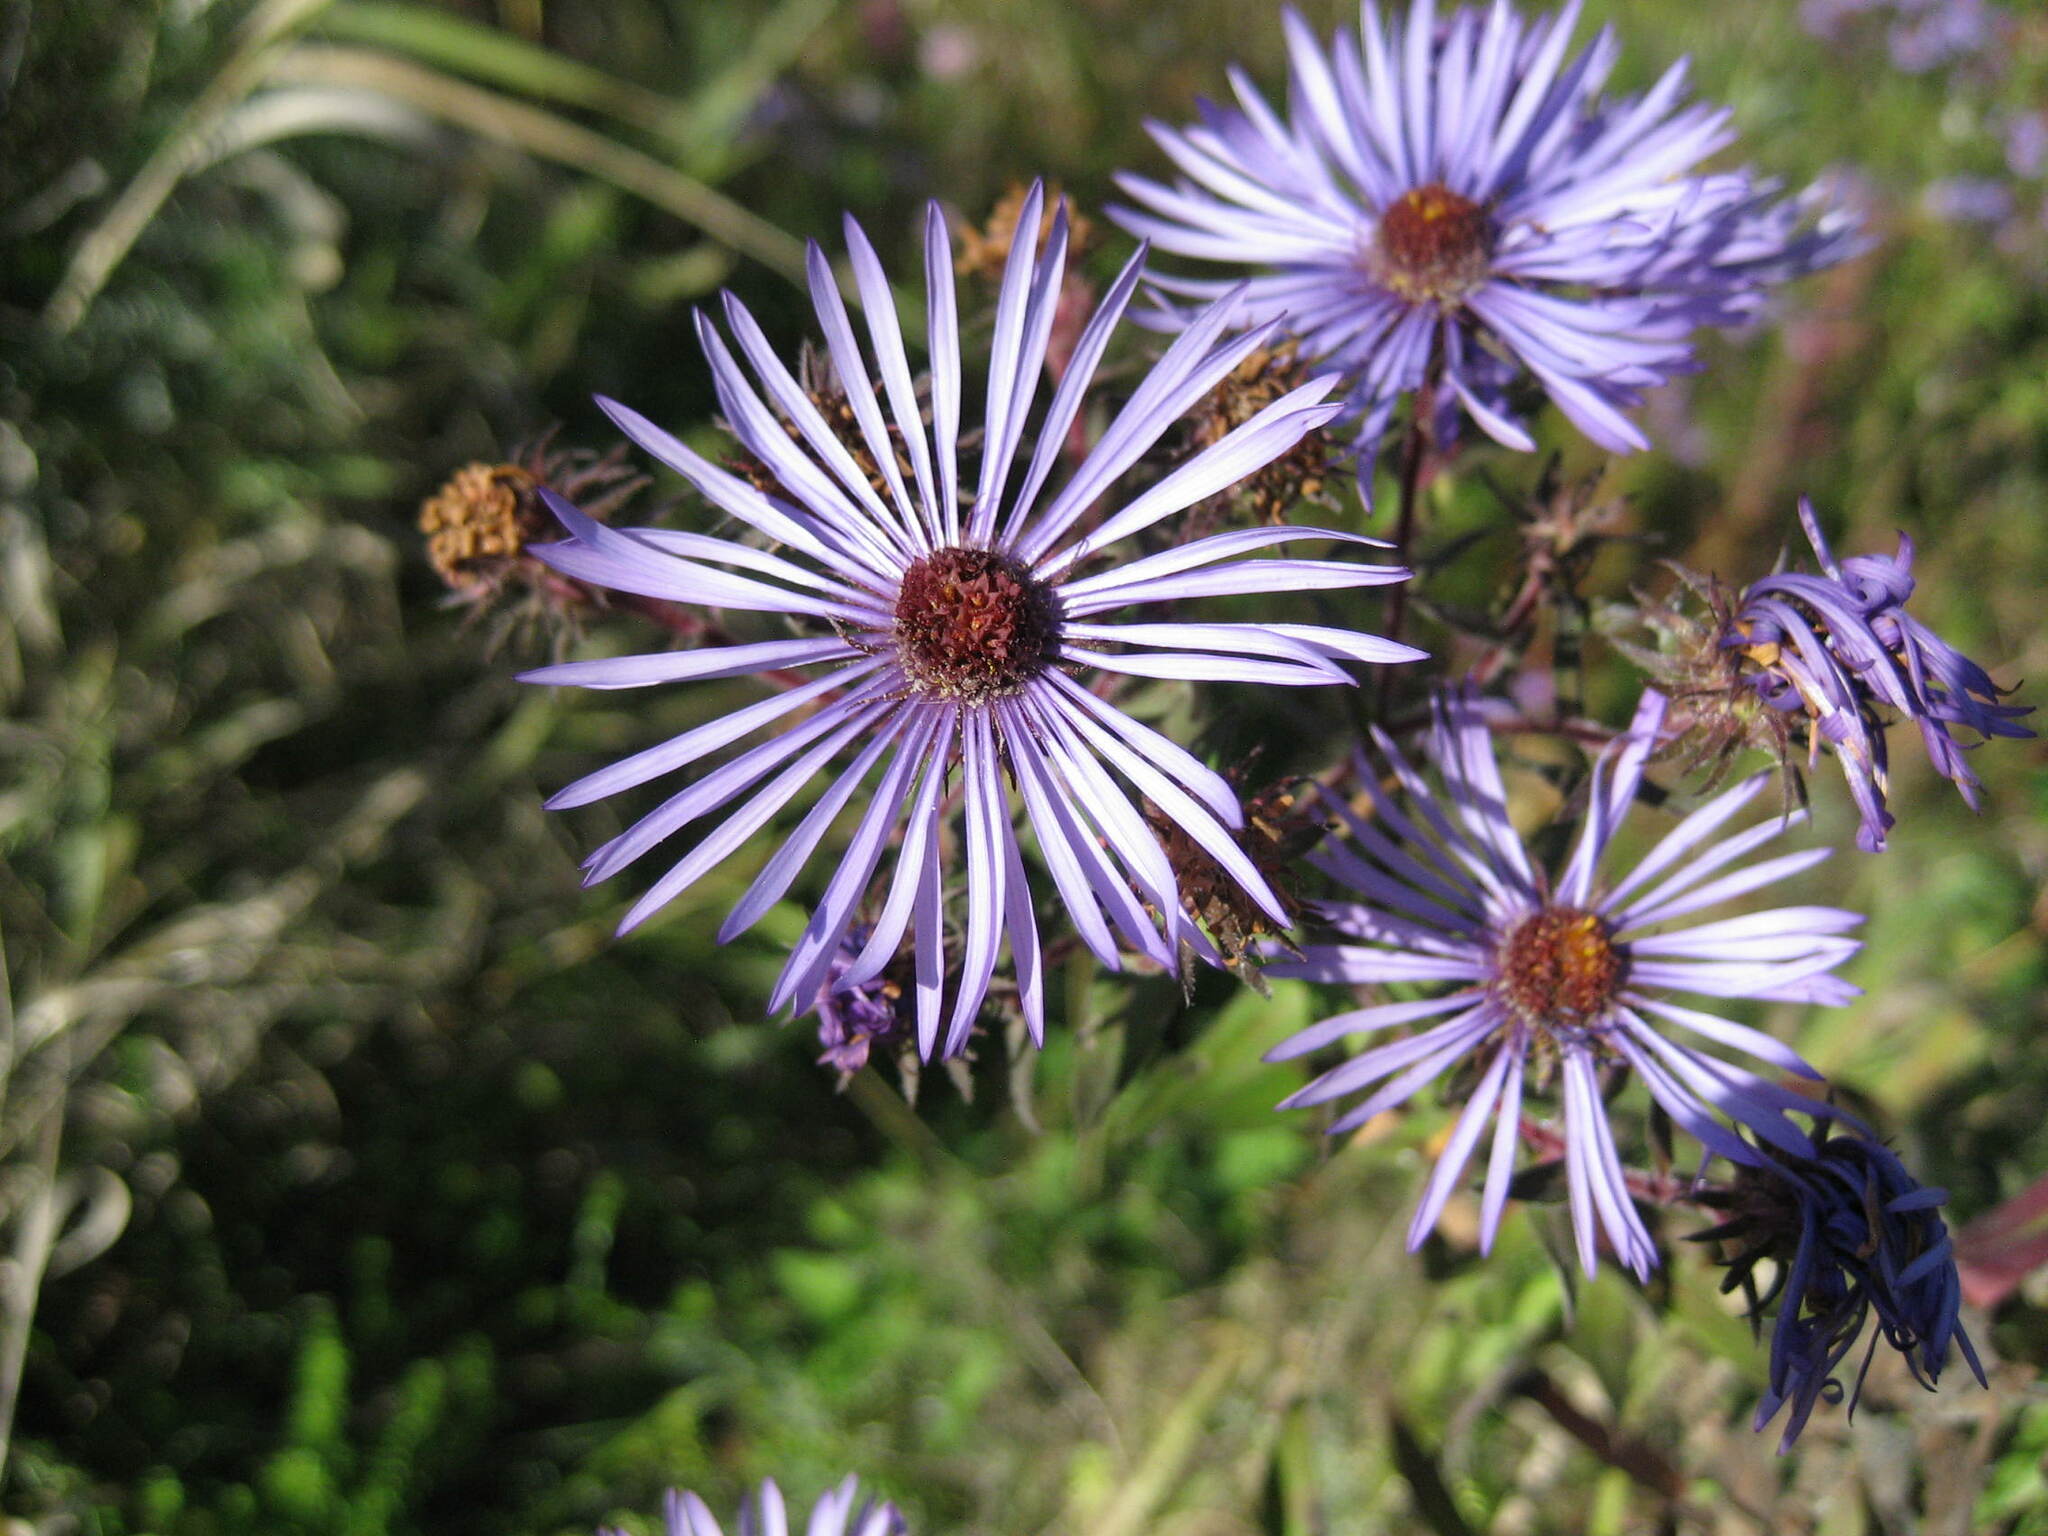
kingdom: Plantae
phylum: Tracheophyta
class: Magnoliopsida
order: Asterales
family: Asteraceae
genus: Symphyotrichum
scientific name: Symphyotrichum novae-angliae
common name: Michaelmas daisy
